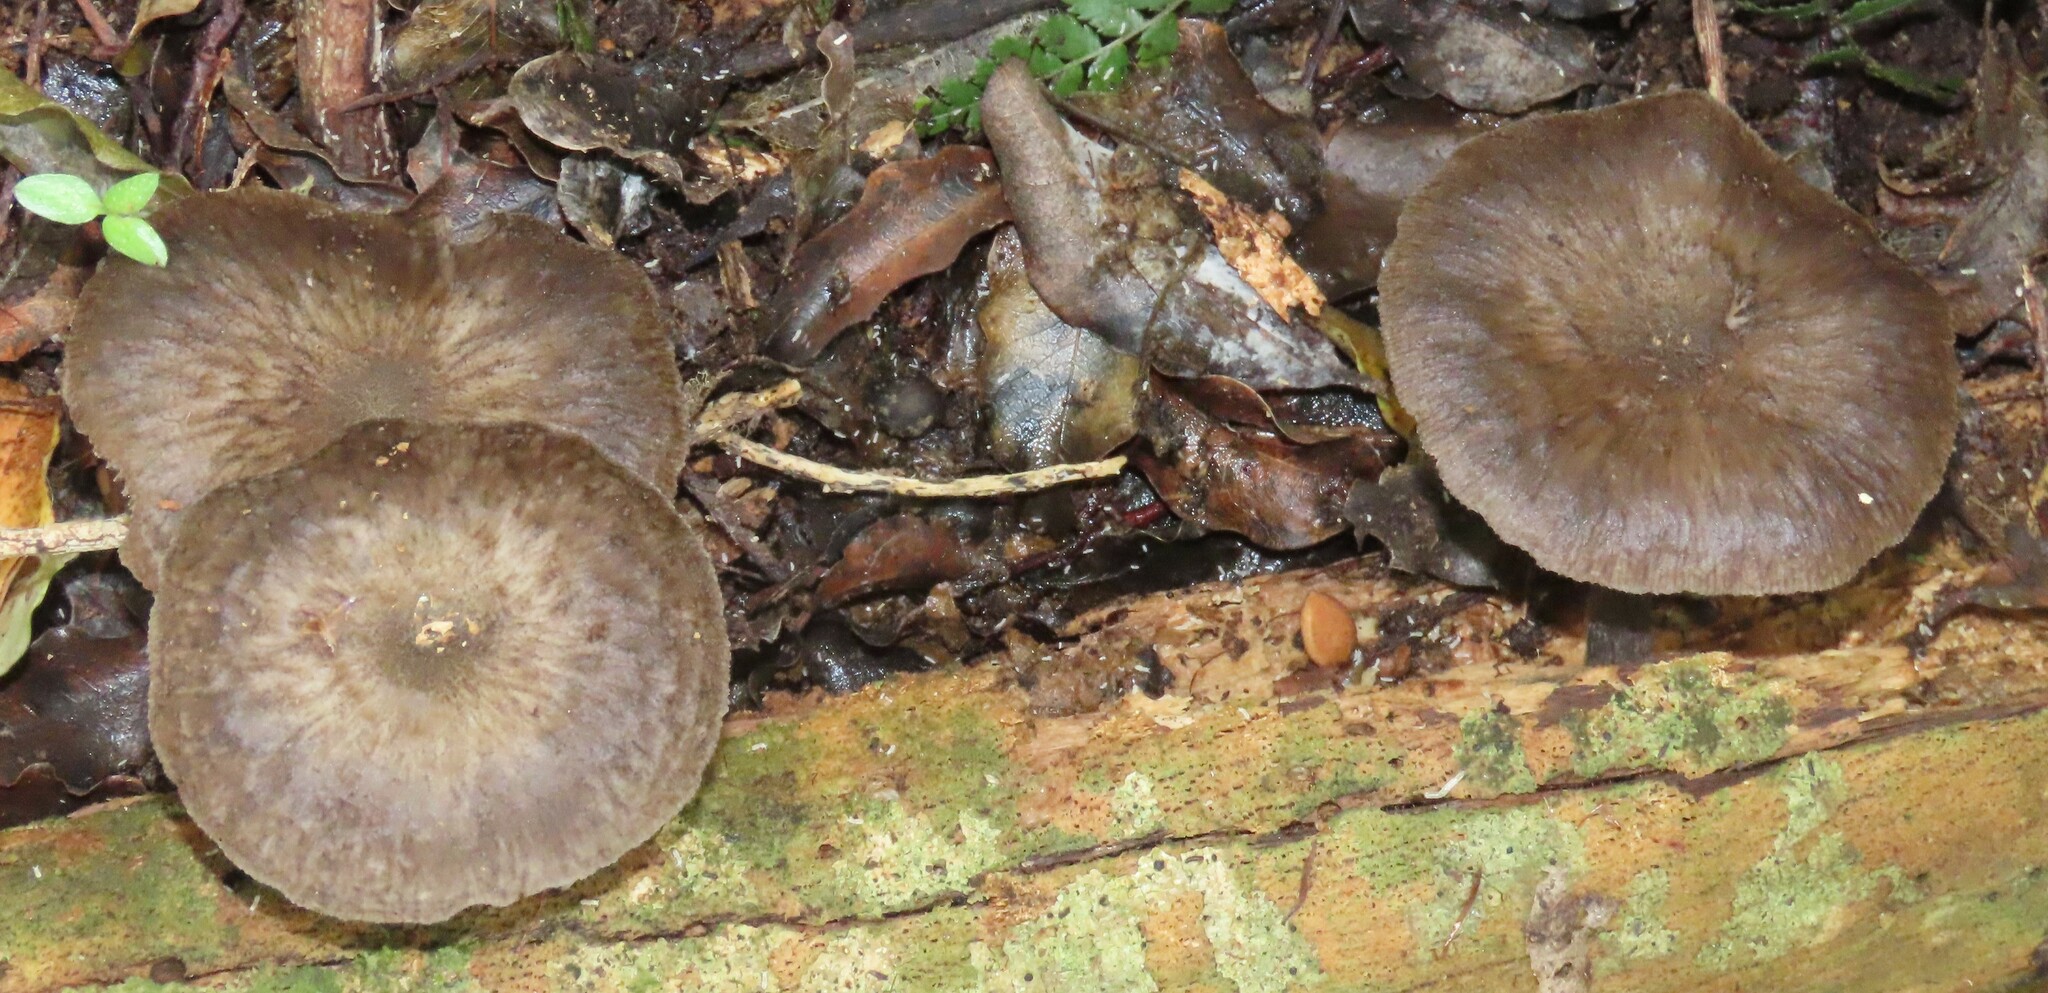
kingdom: Fungi
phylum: Basidiomycota
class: Agaricomycetes
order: Agaricales
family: Pluteaceae
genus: Pluteus
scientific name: Pluteus velutinornatus
